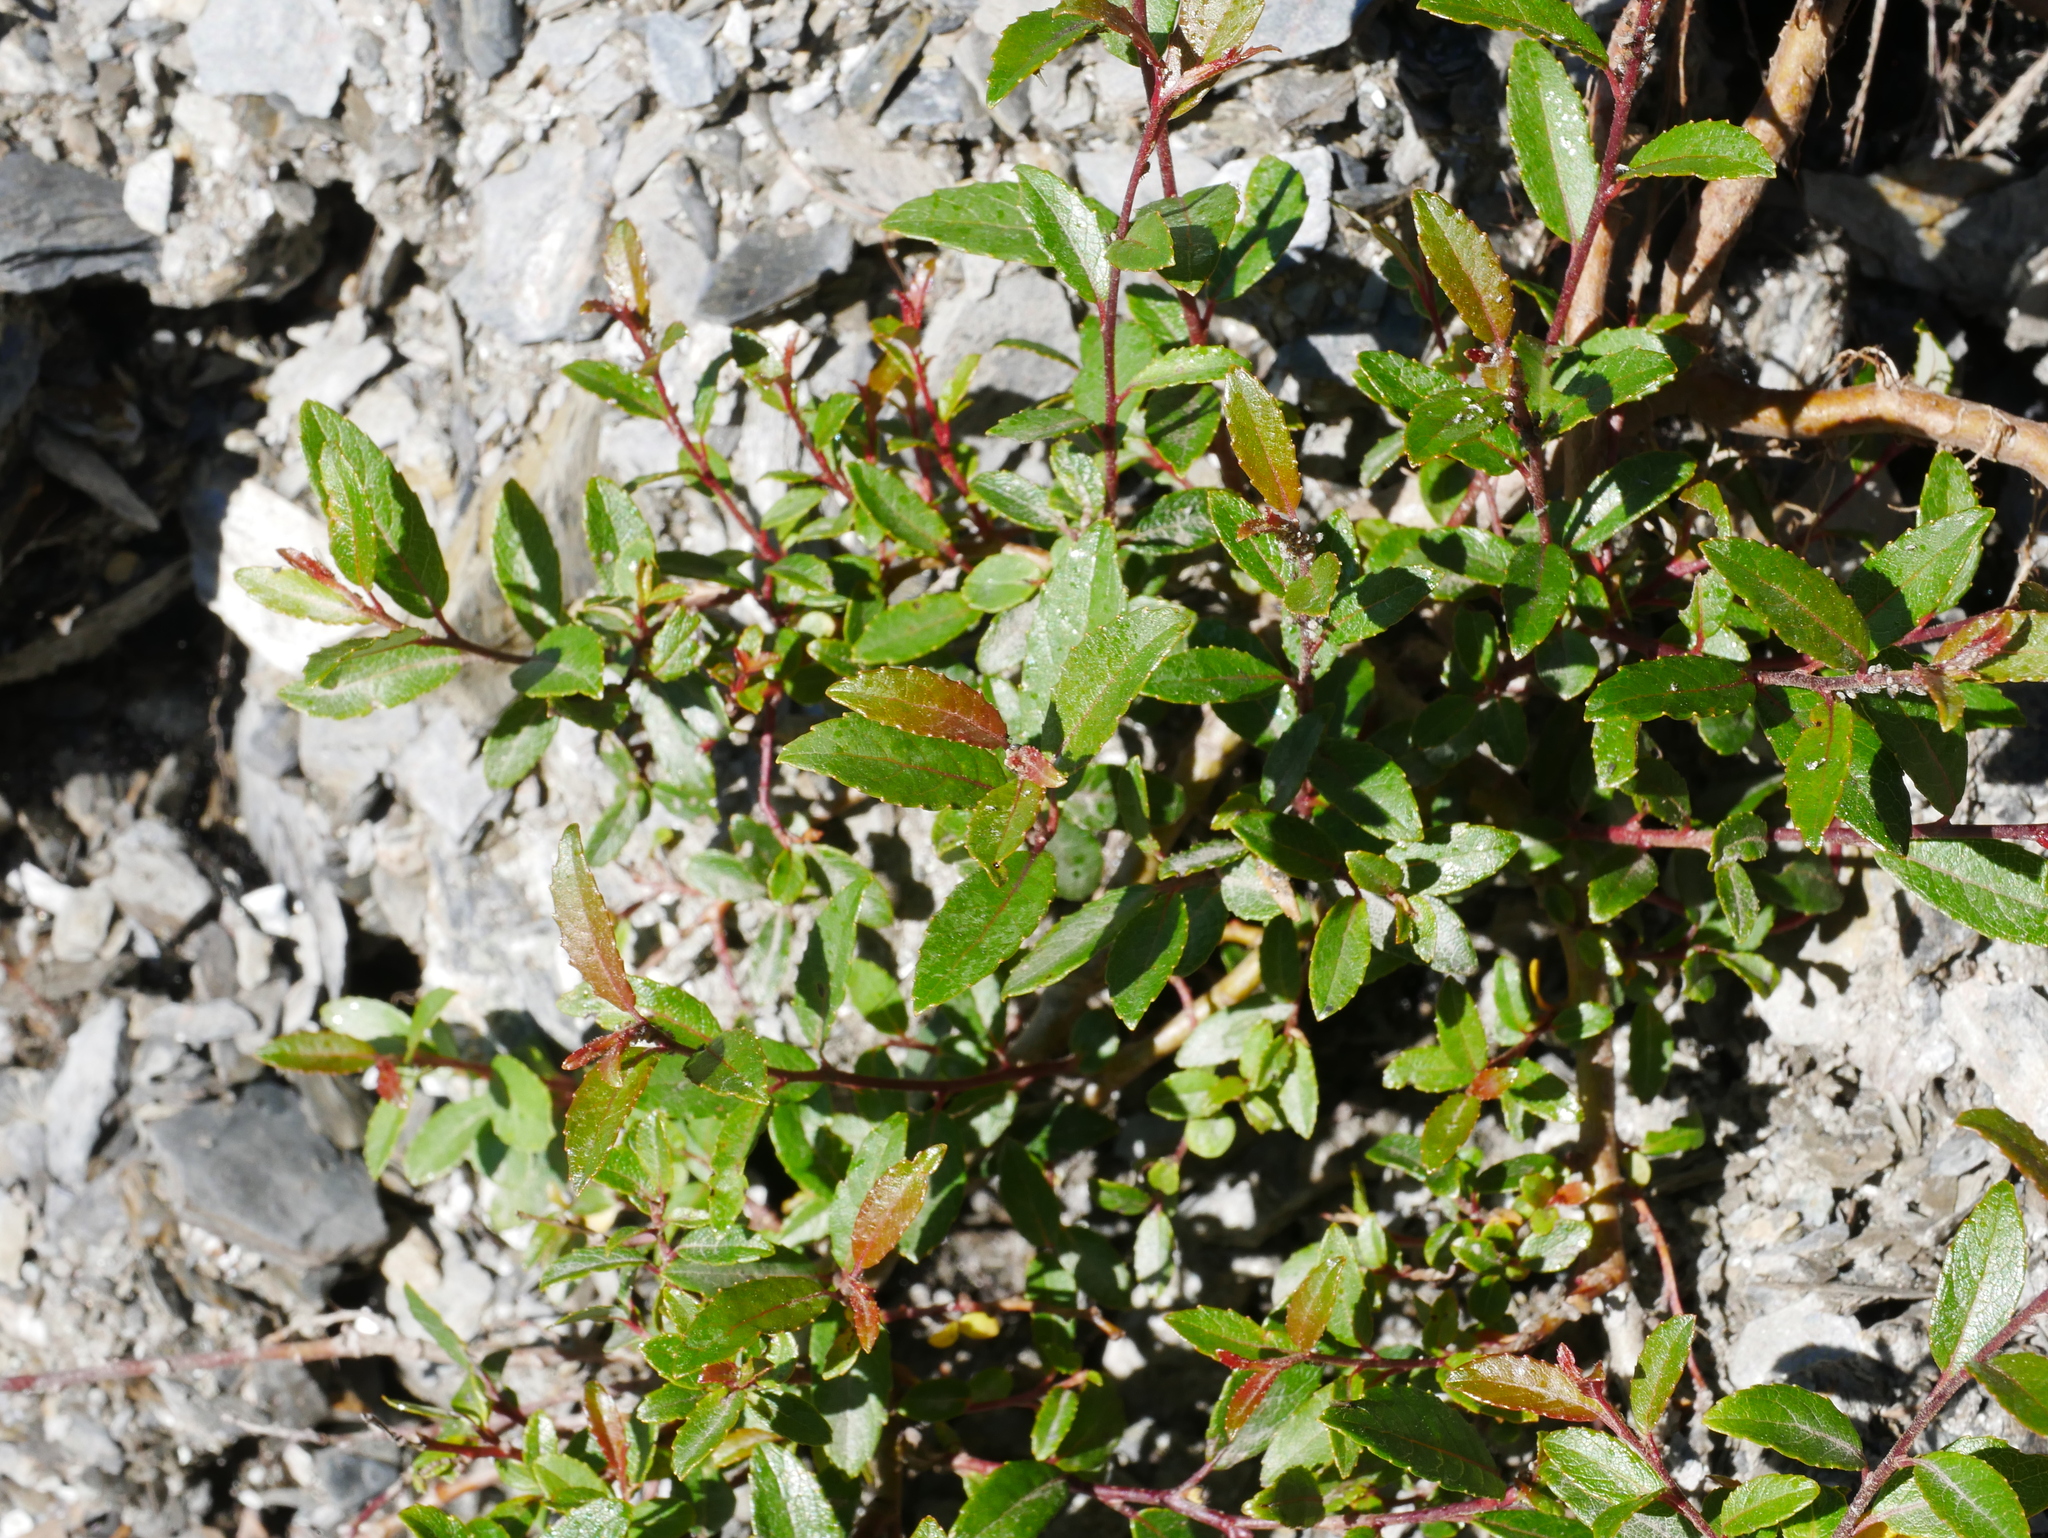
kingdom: Plantae
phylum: Tracheophyta
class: Magnoliopsida
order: Malpighiales
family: Salicaceae
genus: Salix
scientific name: Salix taiwanalpina
